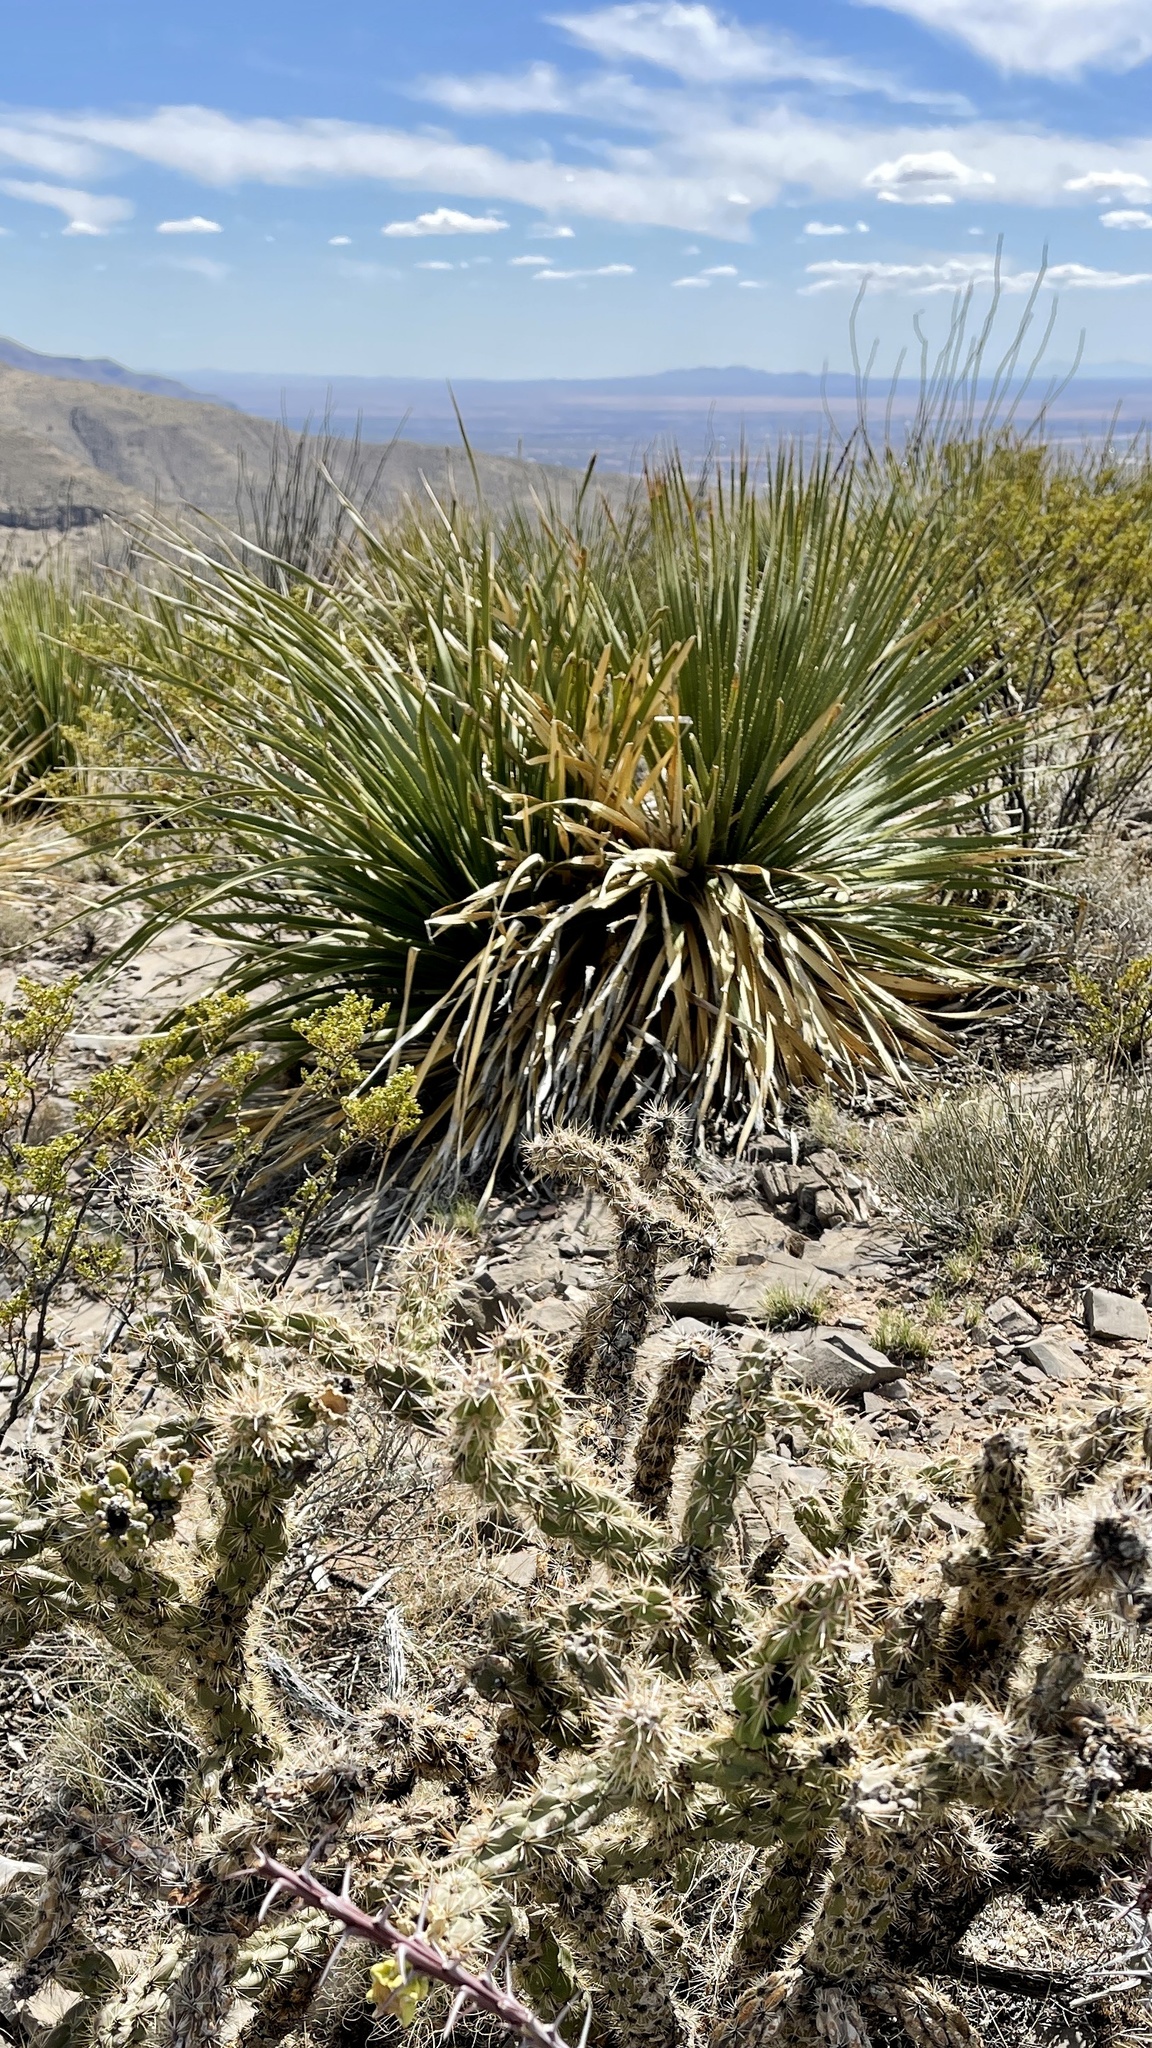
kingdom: Plantae
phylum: Tracheophyta
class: Liliopsida
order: Asparagales
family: Asparagaceae
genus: Dasylirion
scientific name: Dasylirion wheeleri
